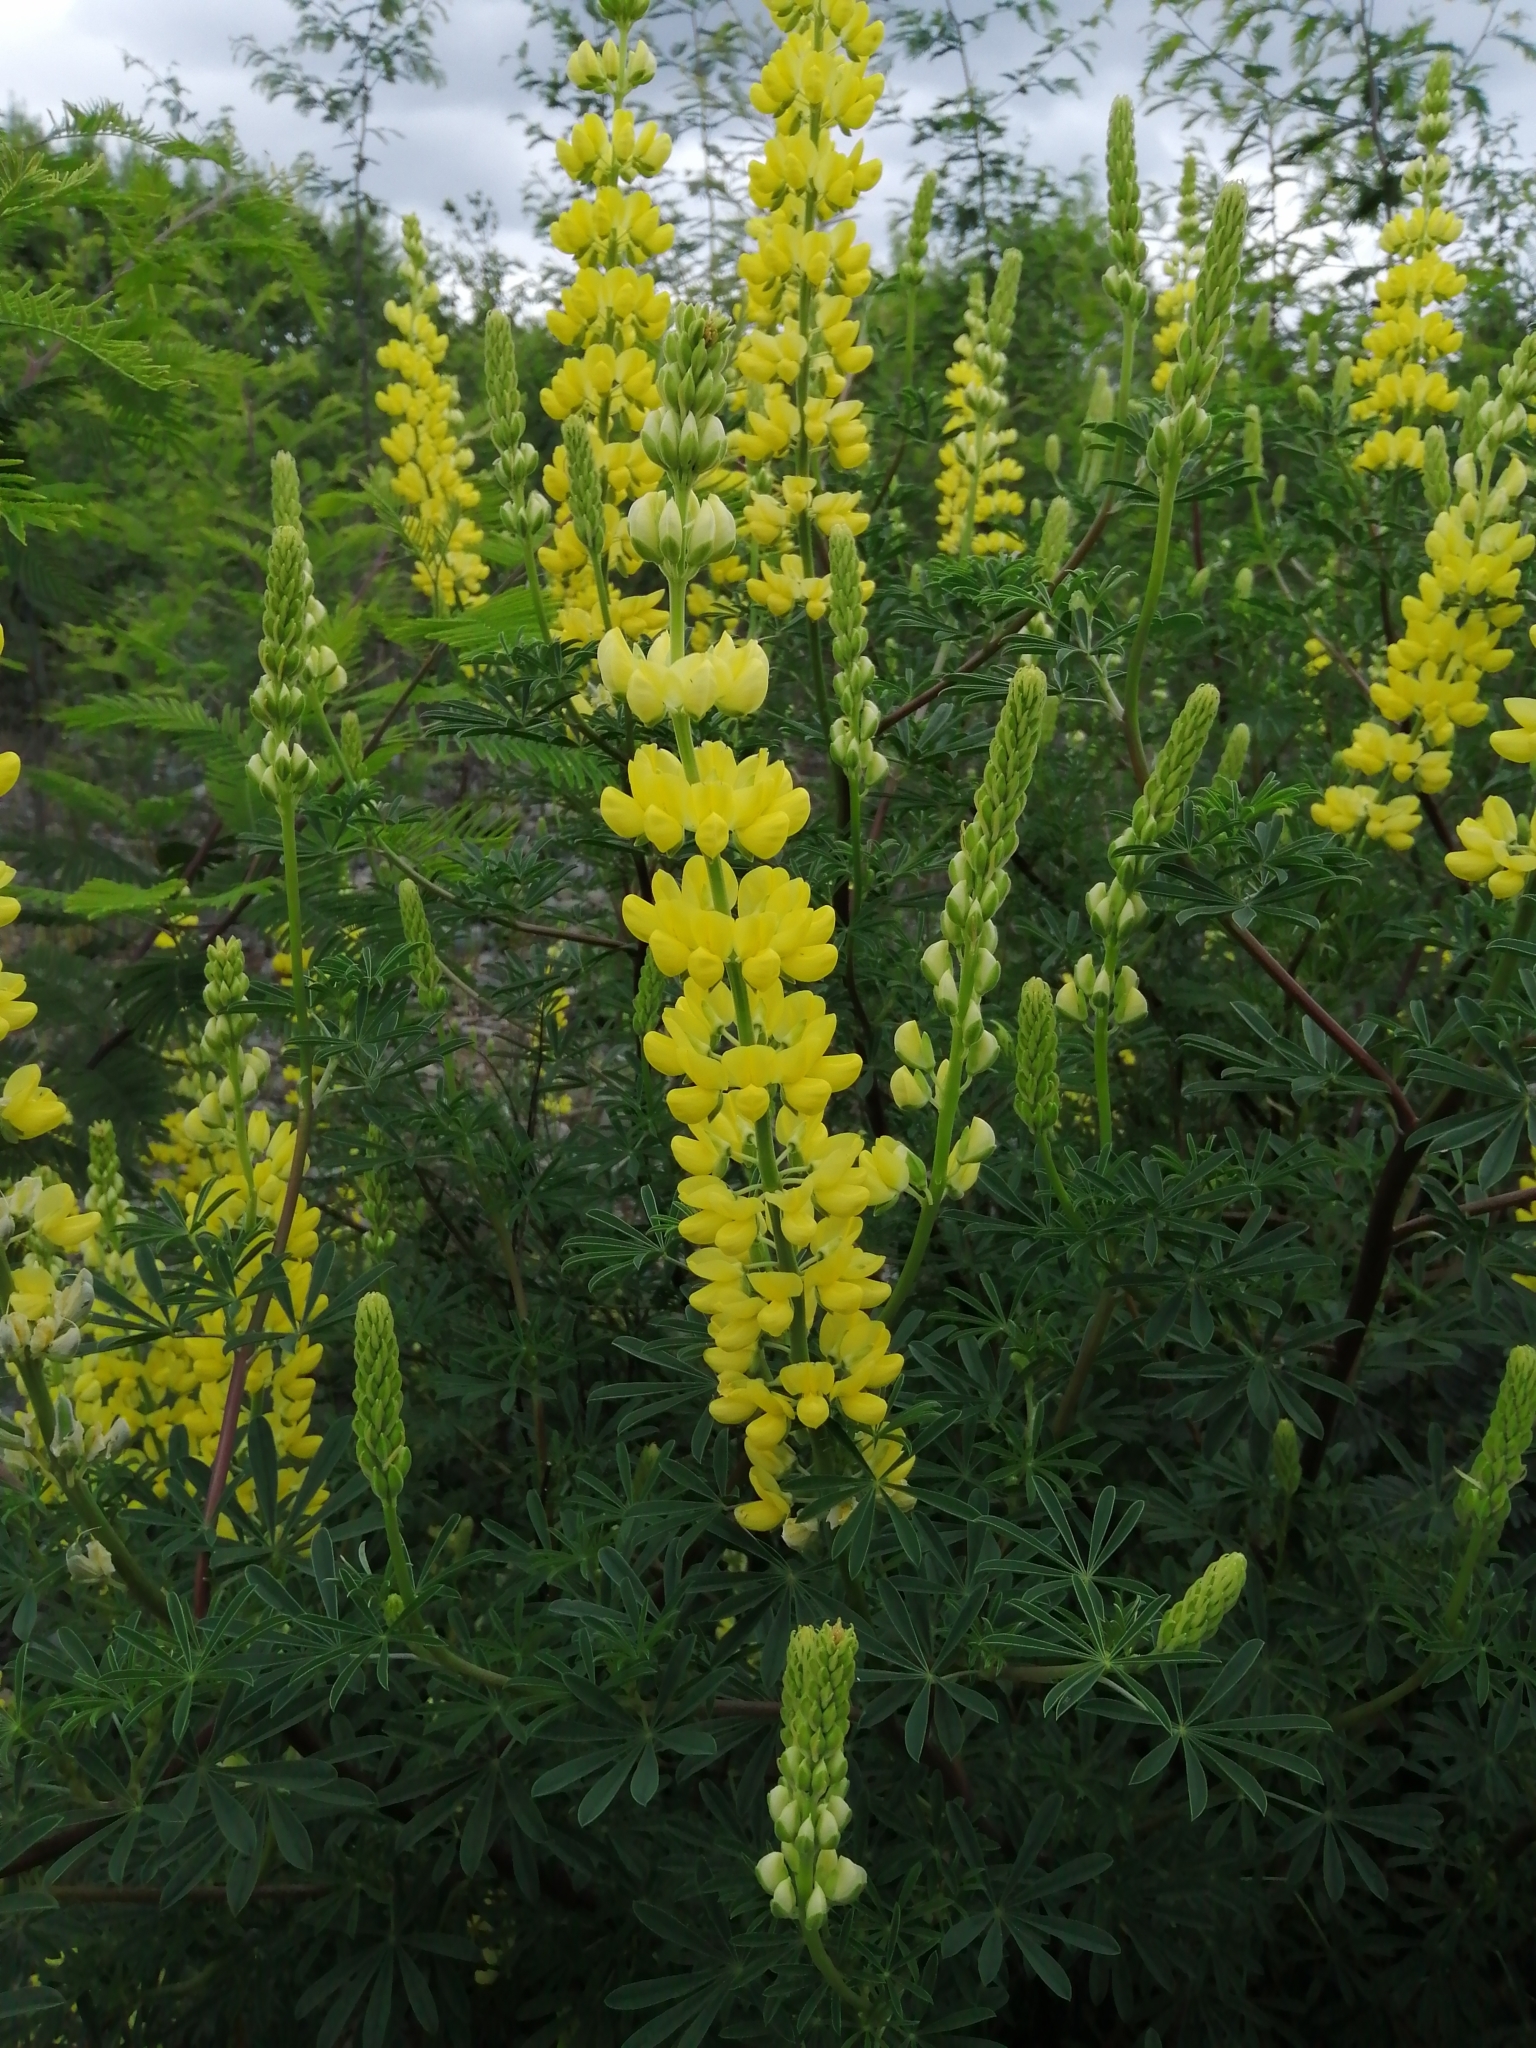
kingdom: Plantae
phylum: Tracheophyta
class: Magnoliopsida
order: Fabales
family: Fabaceae
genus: Lupinus
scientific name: Lupinus arboreus
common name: Yellow bush lupine
